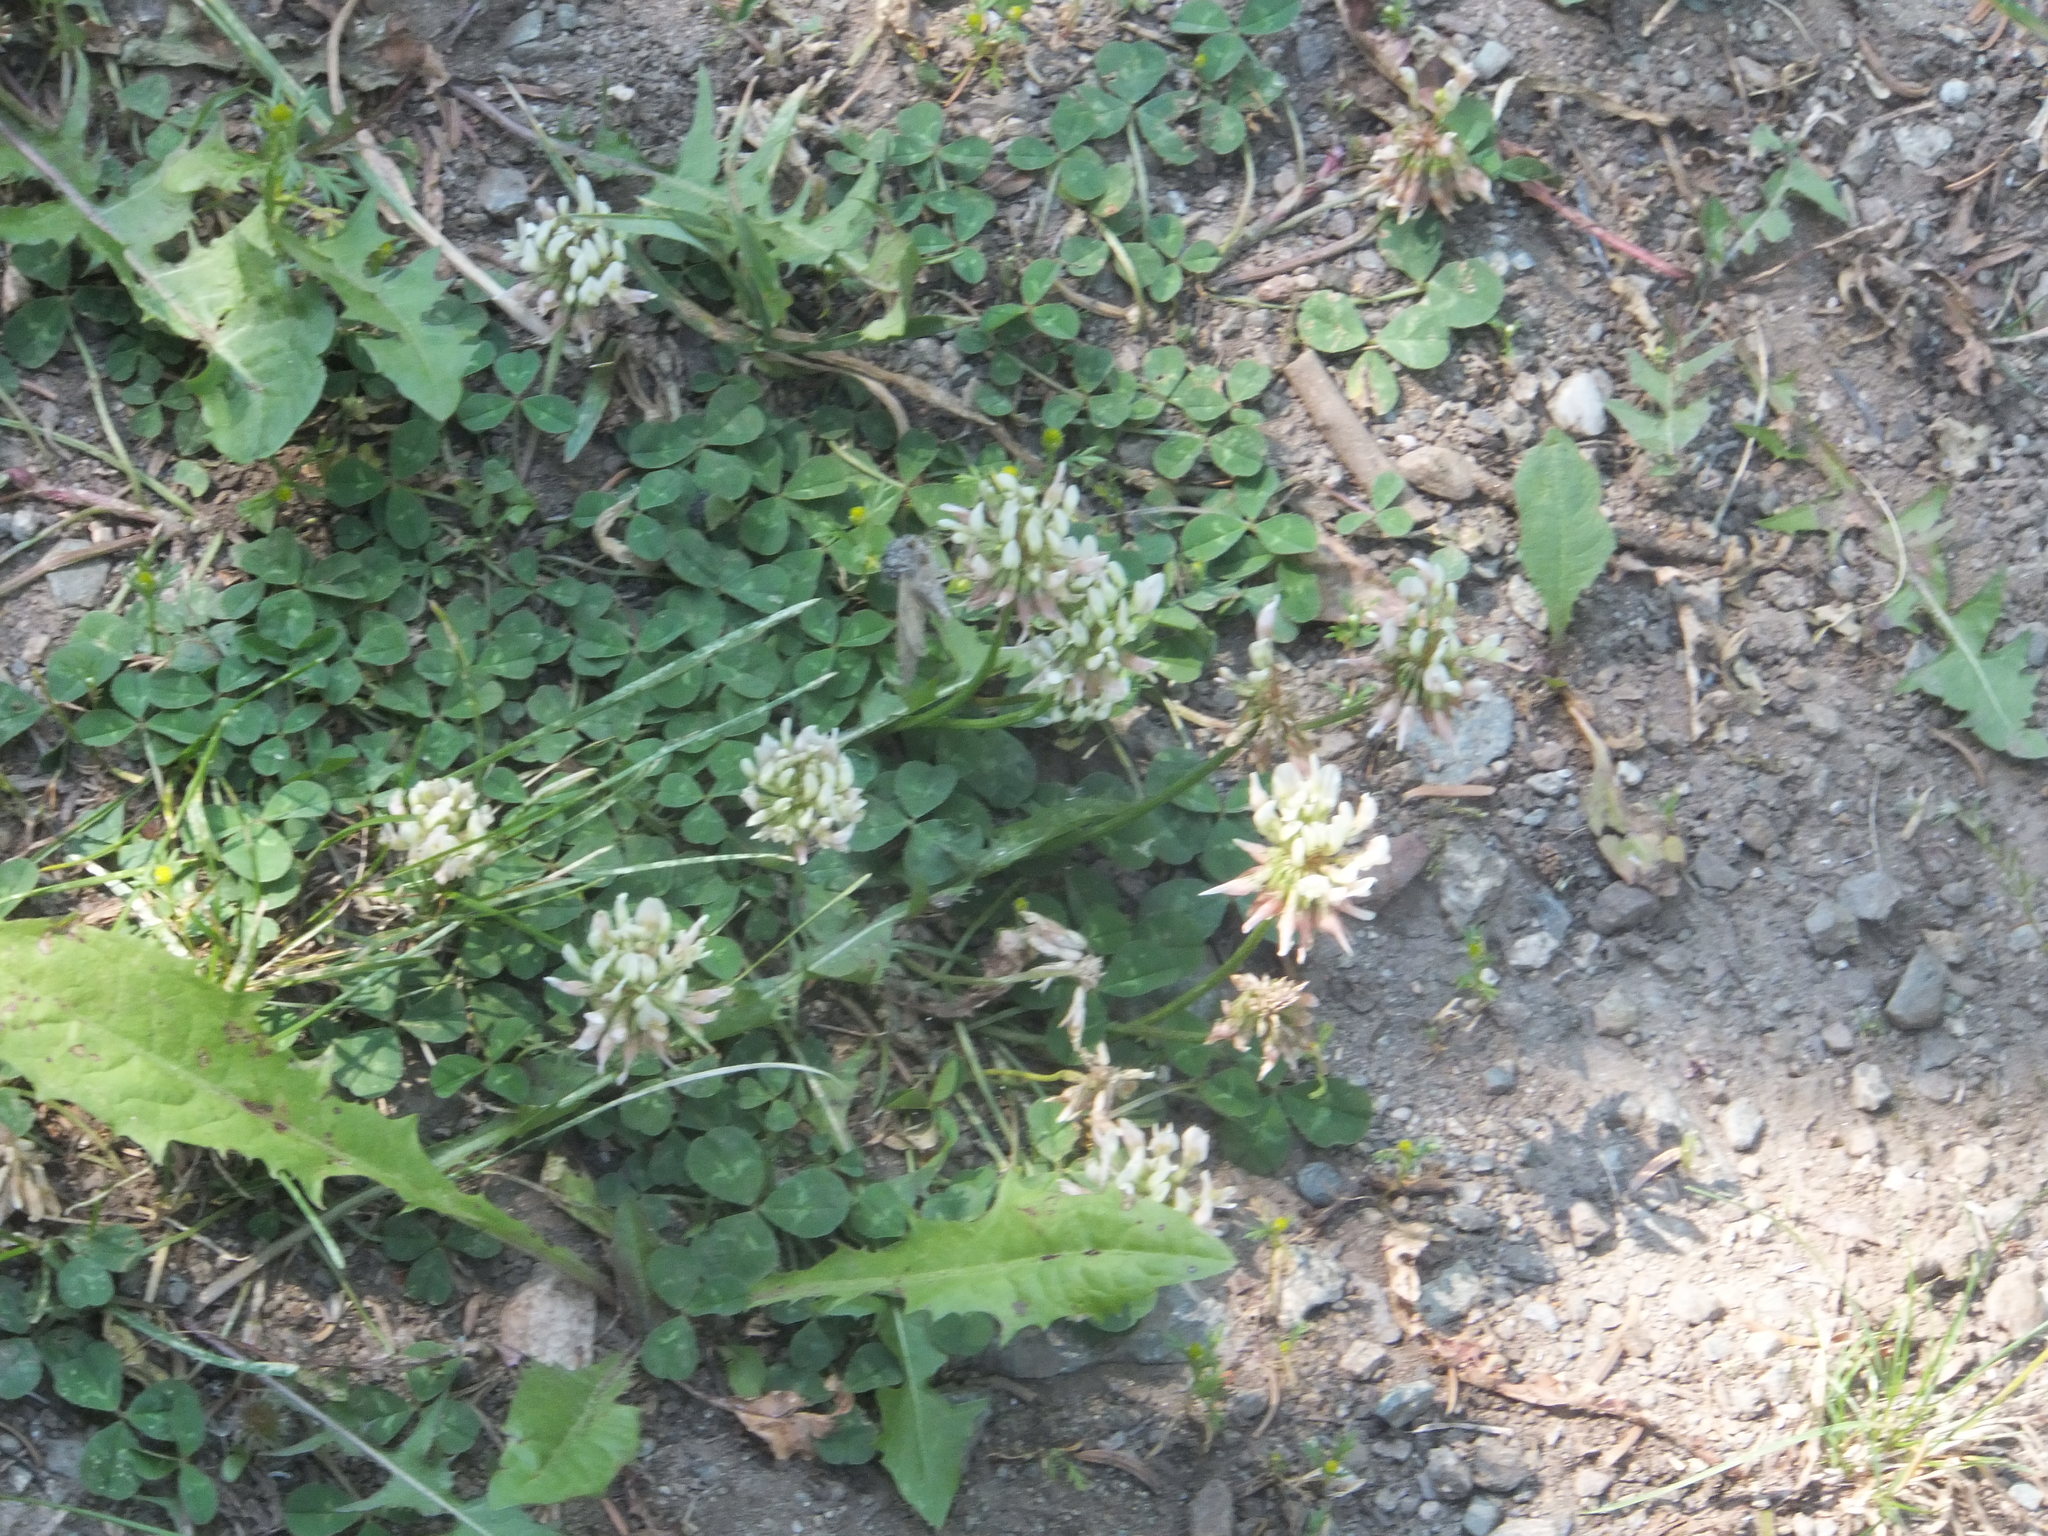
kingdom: Plantae
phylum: Tracheophyta
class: Magnoliopsida
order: Fabales
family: Fabaceae
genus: Trifolium
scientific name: Trifolium repens
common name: White clover
